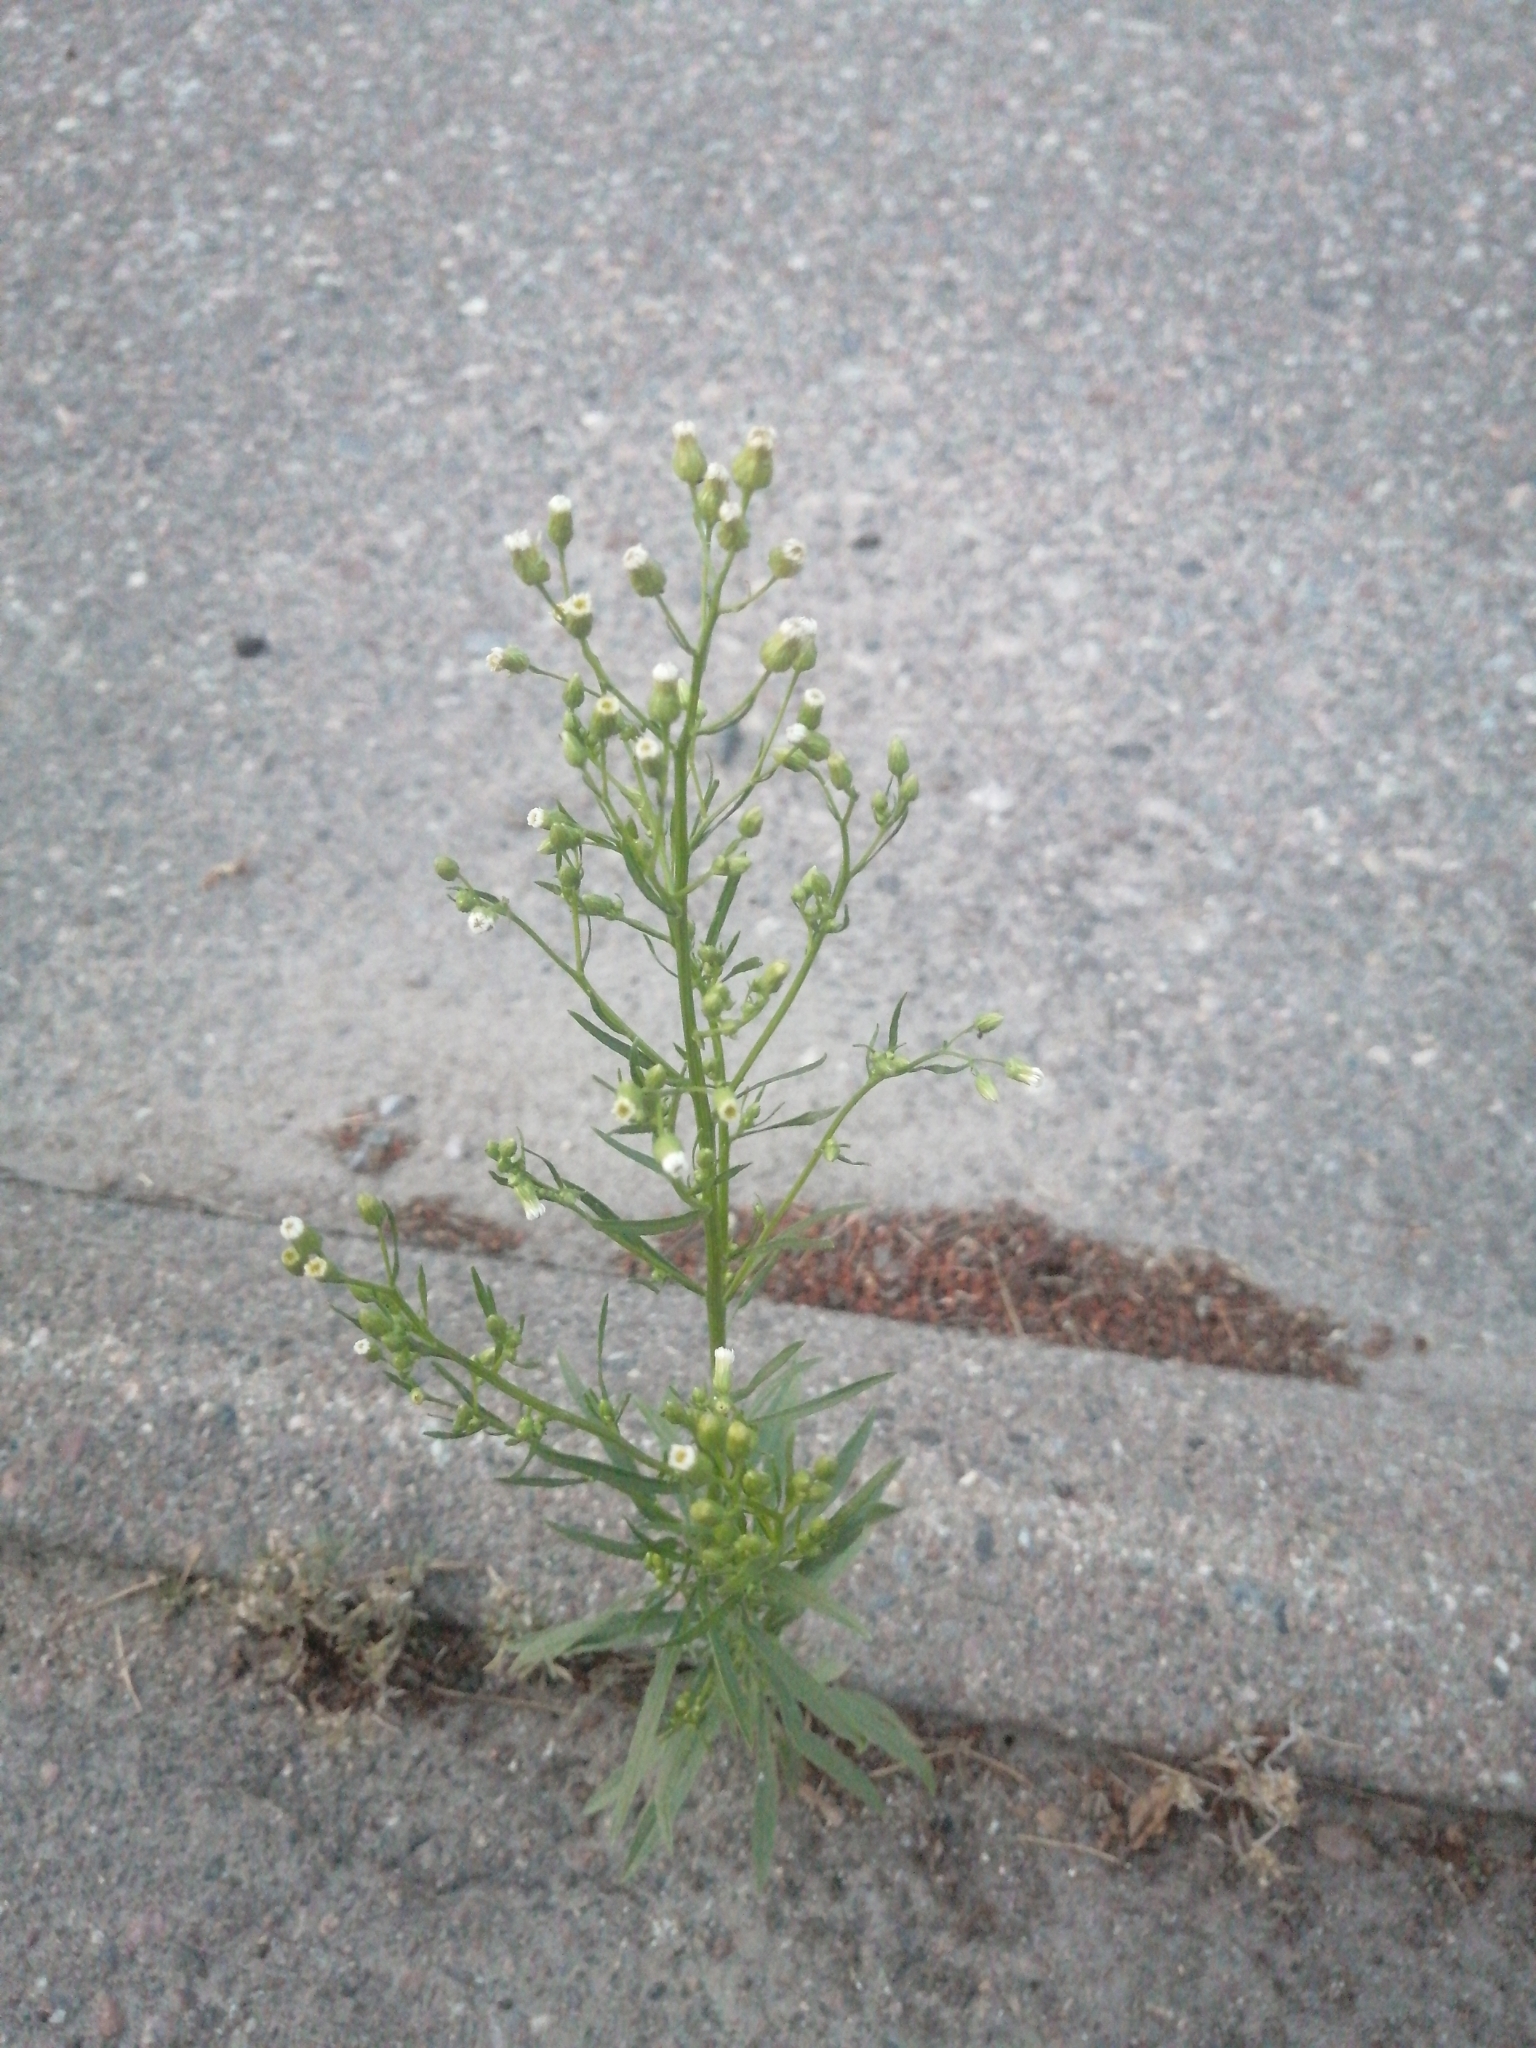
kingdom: Plantae
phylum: Tracheophyta
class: Magnoliopsida
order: Asterales
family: Asteraceae
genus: Erigeron
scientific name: Erigeron canadensis
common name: Canadian fleabane
